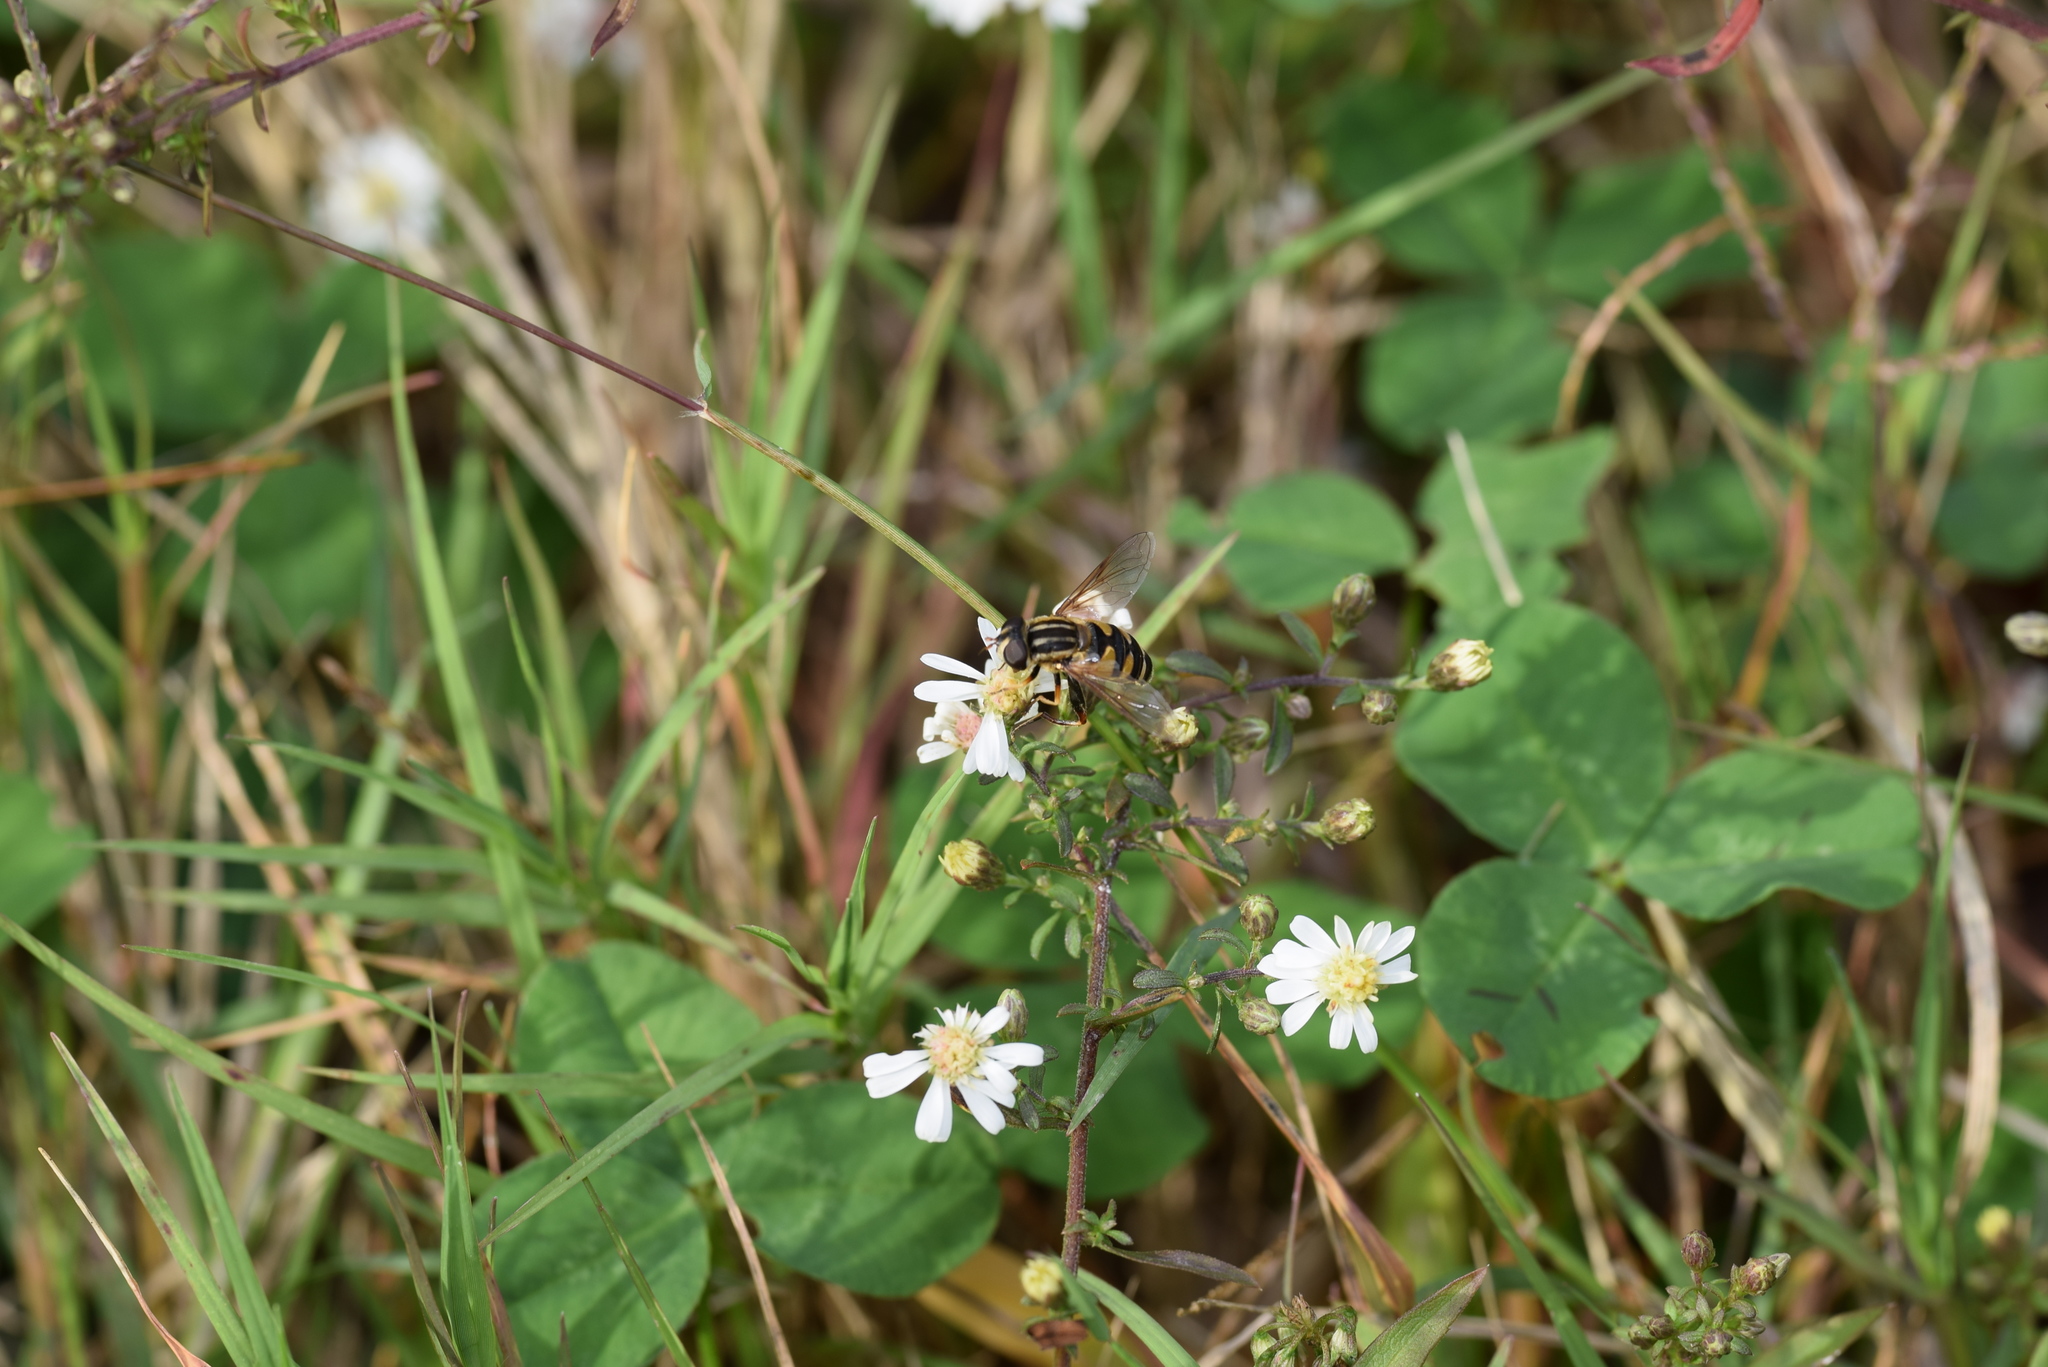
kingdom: Animalia
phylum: Arthropoda
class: Insecta
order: Diptera
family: Syrphidae
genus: Helophilus
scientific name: Helophilus fasciatus
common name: Narrow-headed marsh fly
